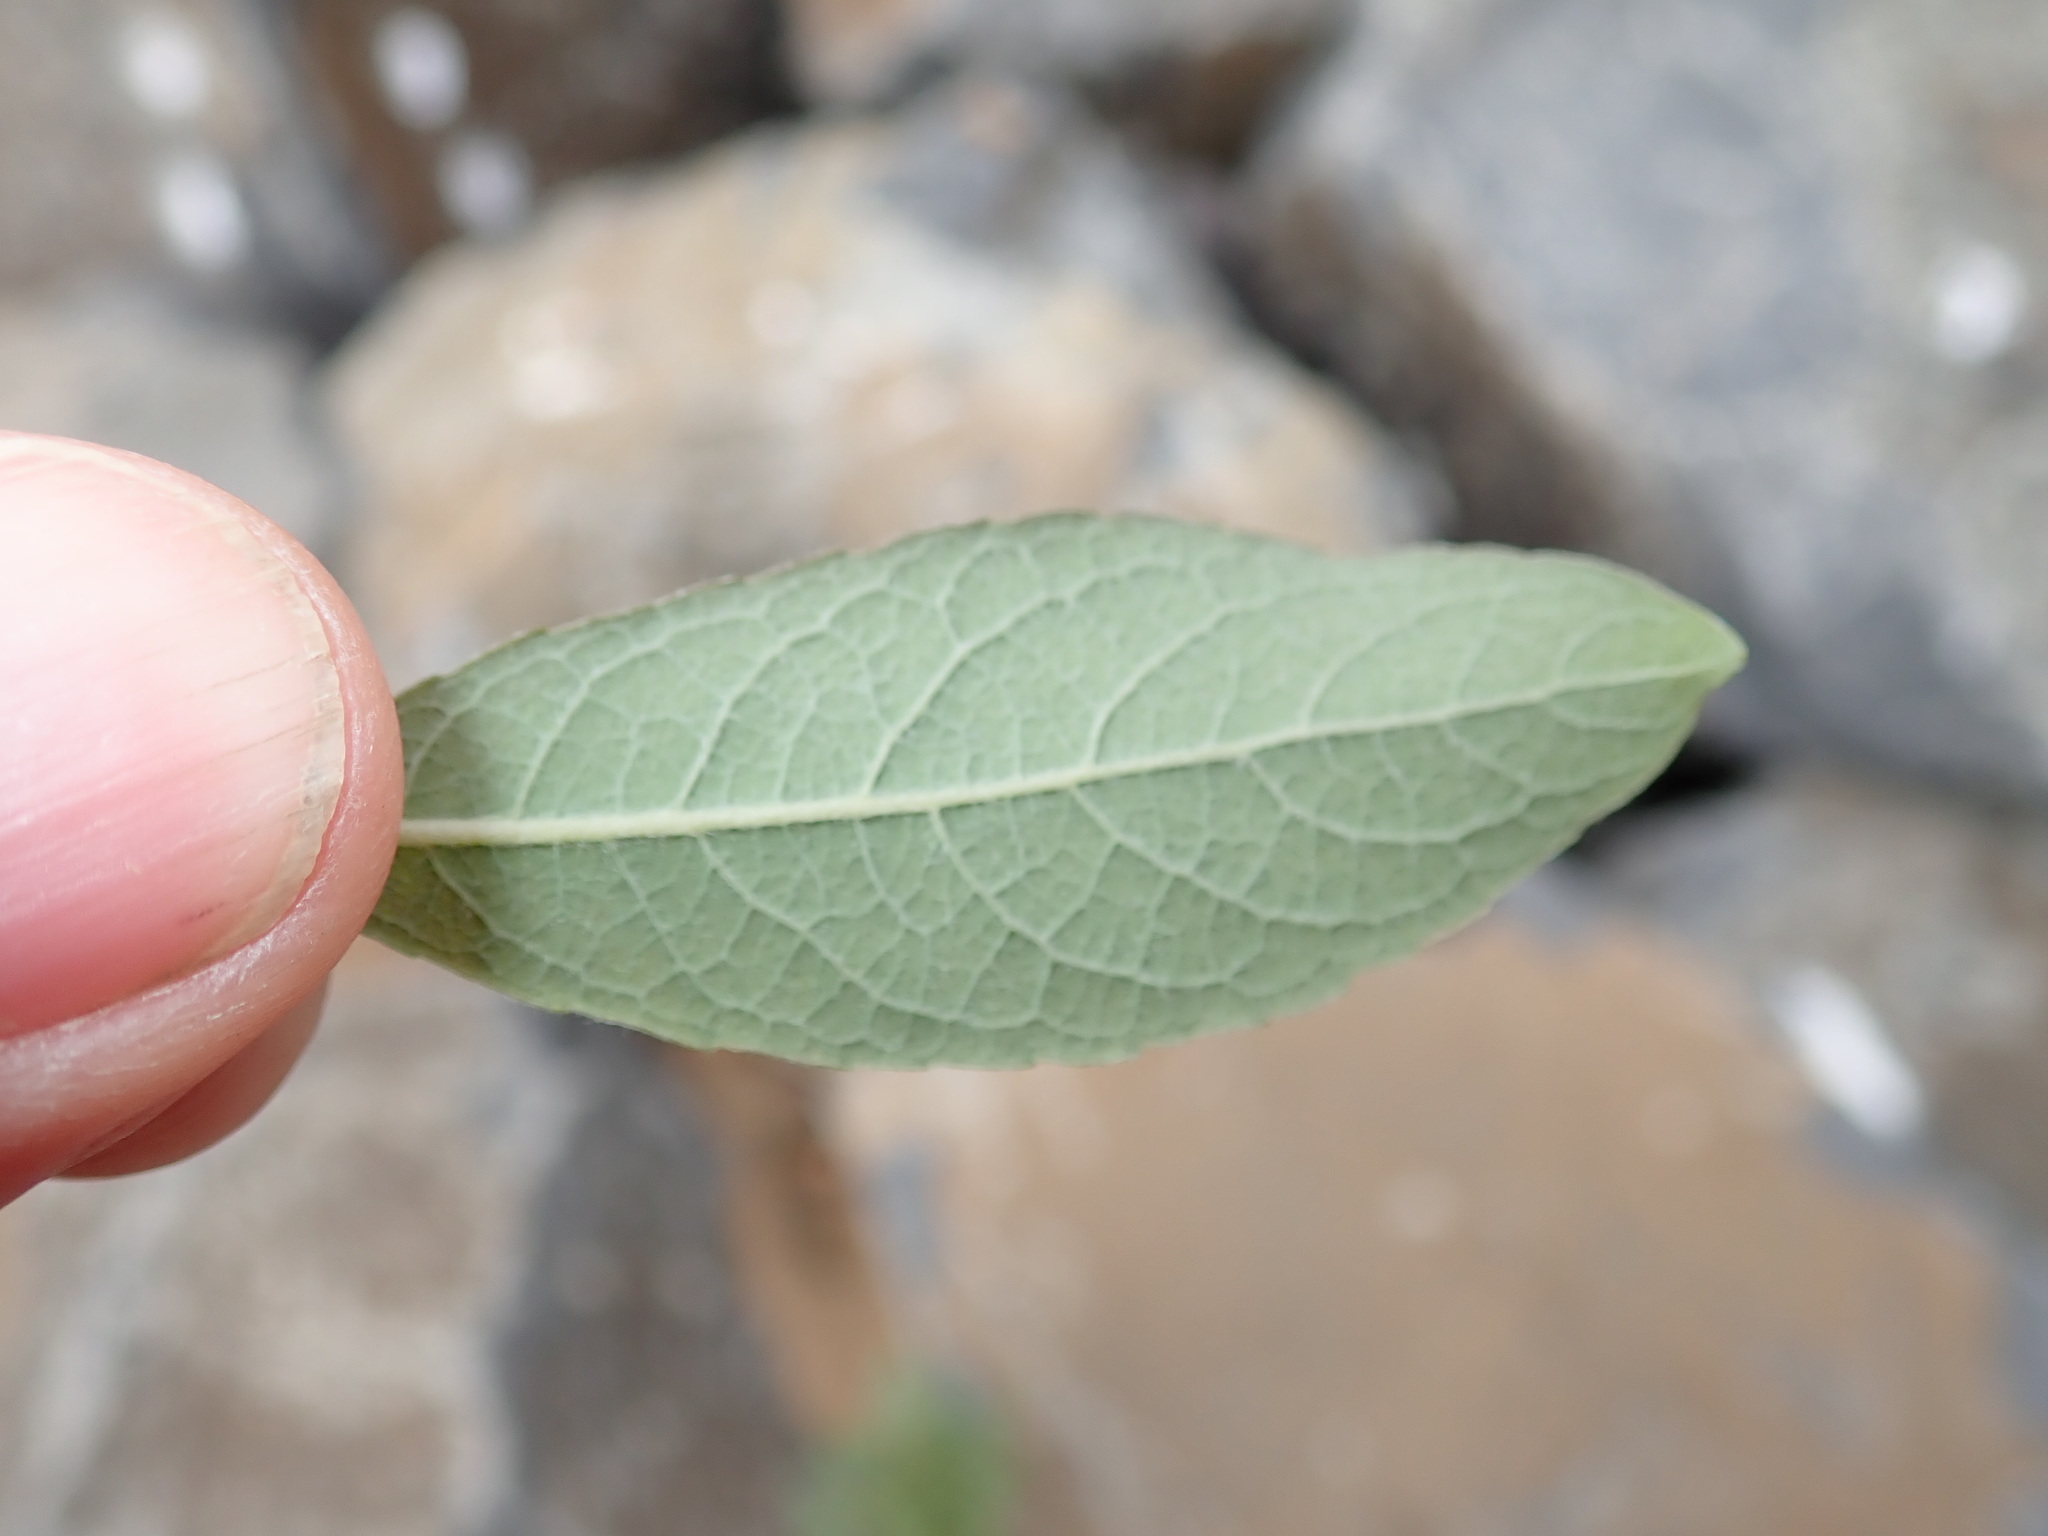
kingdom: Plantae
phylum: Tracheophyta
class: Magnoliopsida
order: Malpighiales
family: Salicaceae
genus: Salix
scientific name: Salix bebbiana
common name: Bebb's willow
